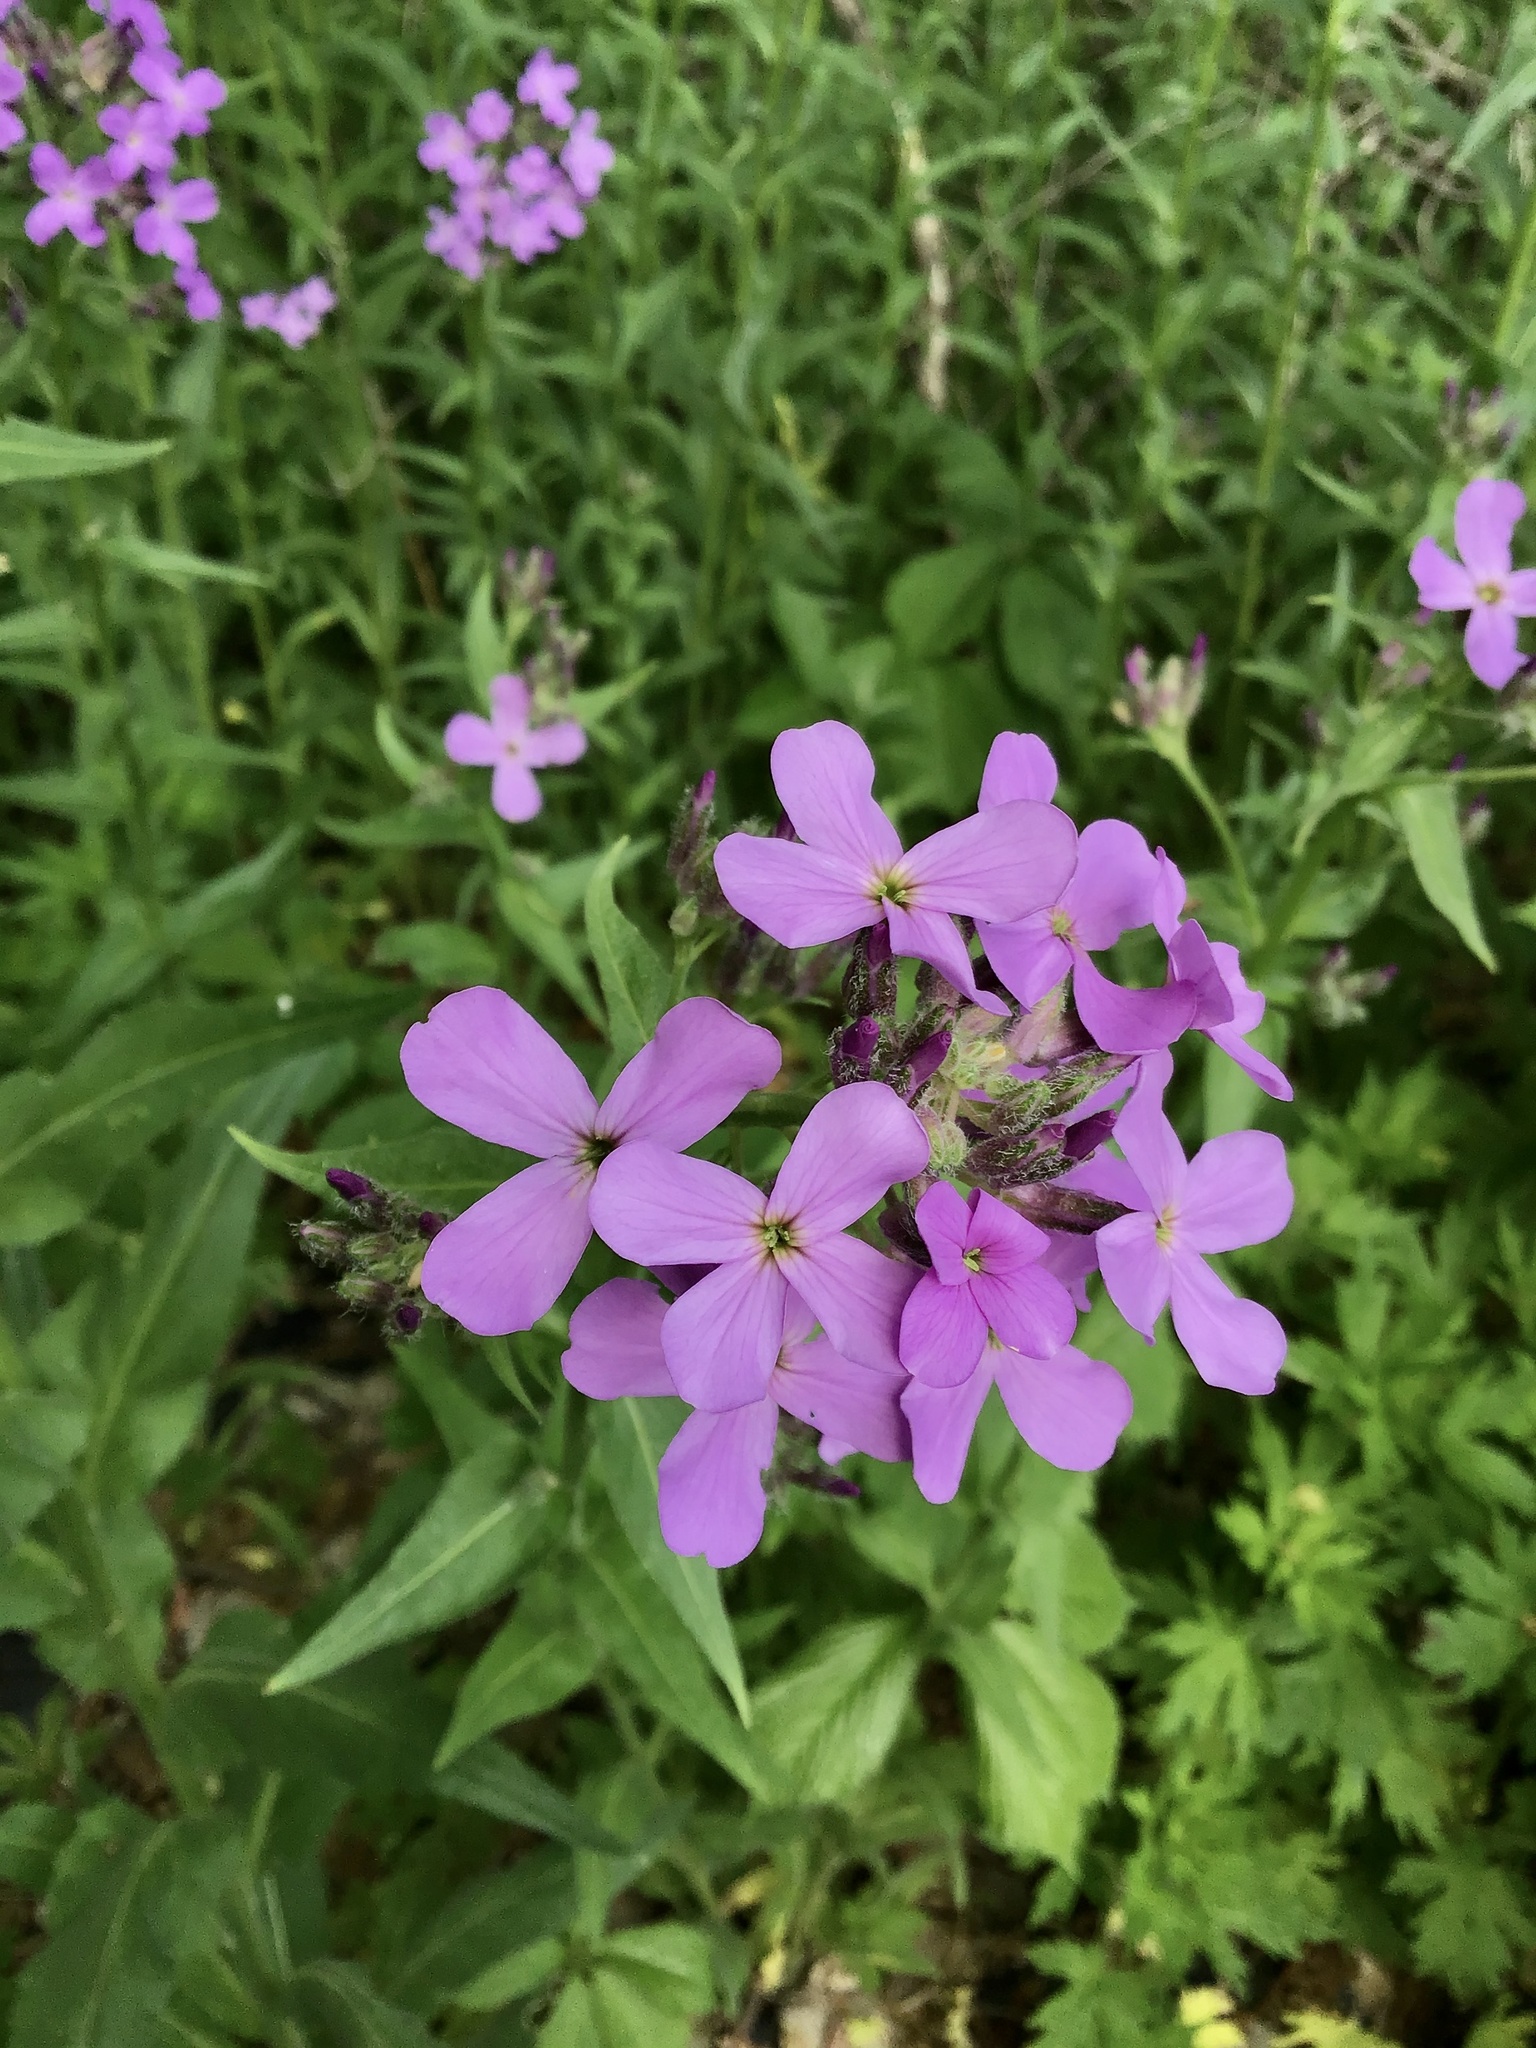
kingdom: Plantae
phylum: Tracheophyta
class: Magnoliopsida
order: Brassicales
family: Brassicaceae
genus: Hesperis
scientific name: Hesperis matronalis
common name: Dame's-violet
